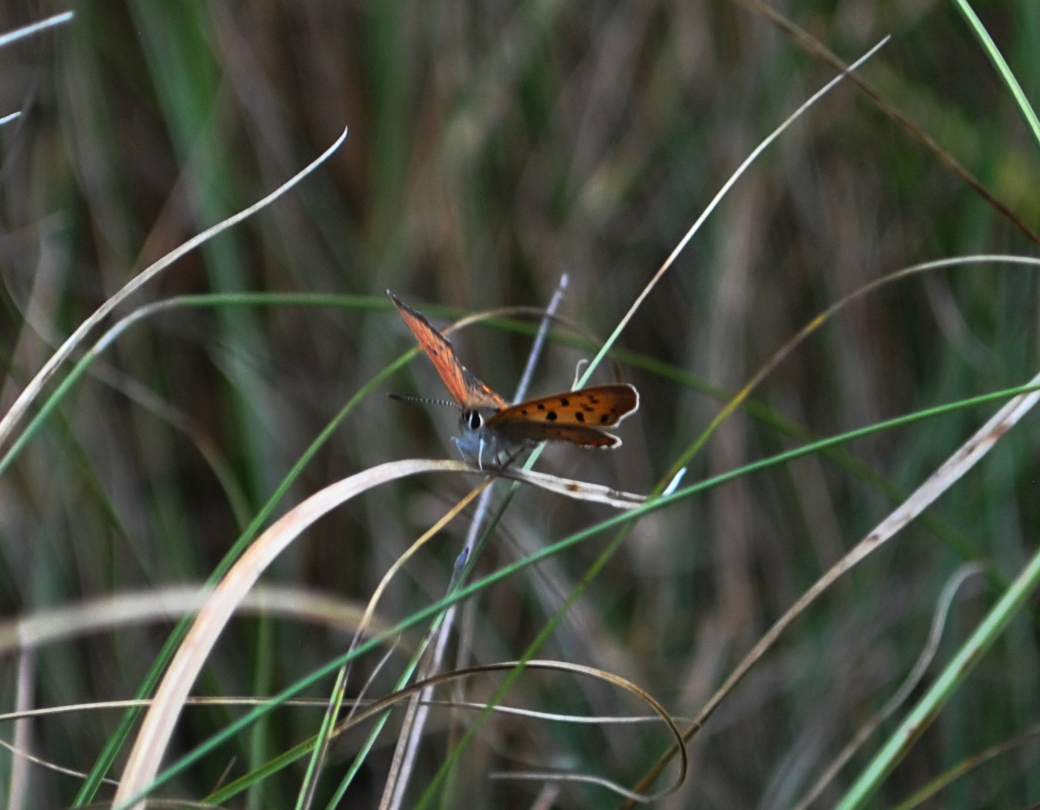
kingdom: Animalia
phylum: Arthropoda
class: Insecta
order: Lepidoptera
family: Lycaenidae
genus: Tharsalea
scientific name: Tharsalea hyllus
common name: Bronze copper
